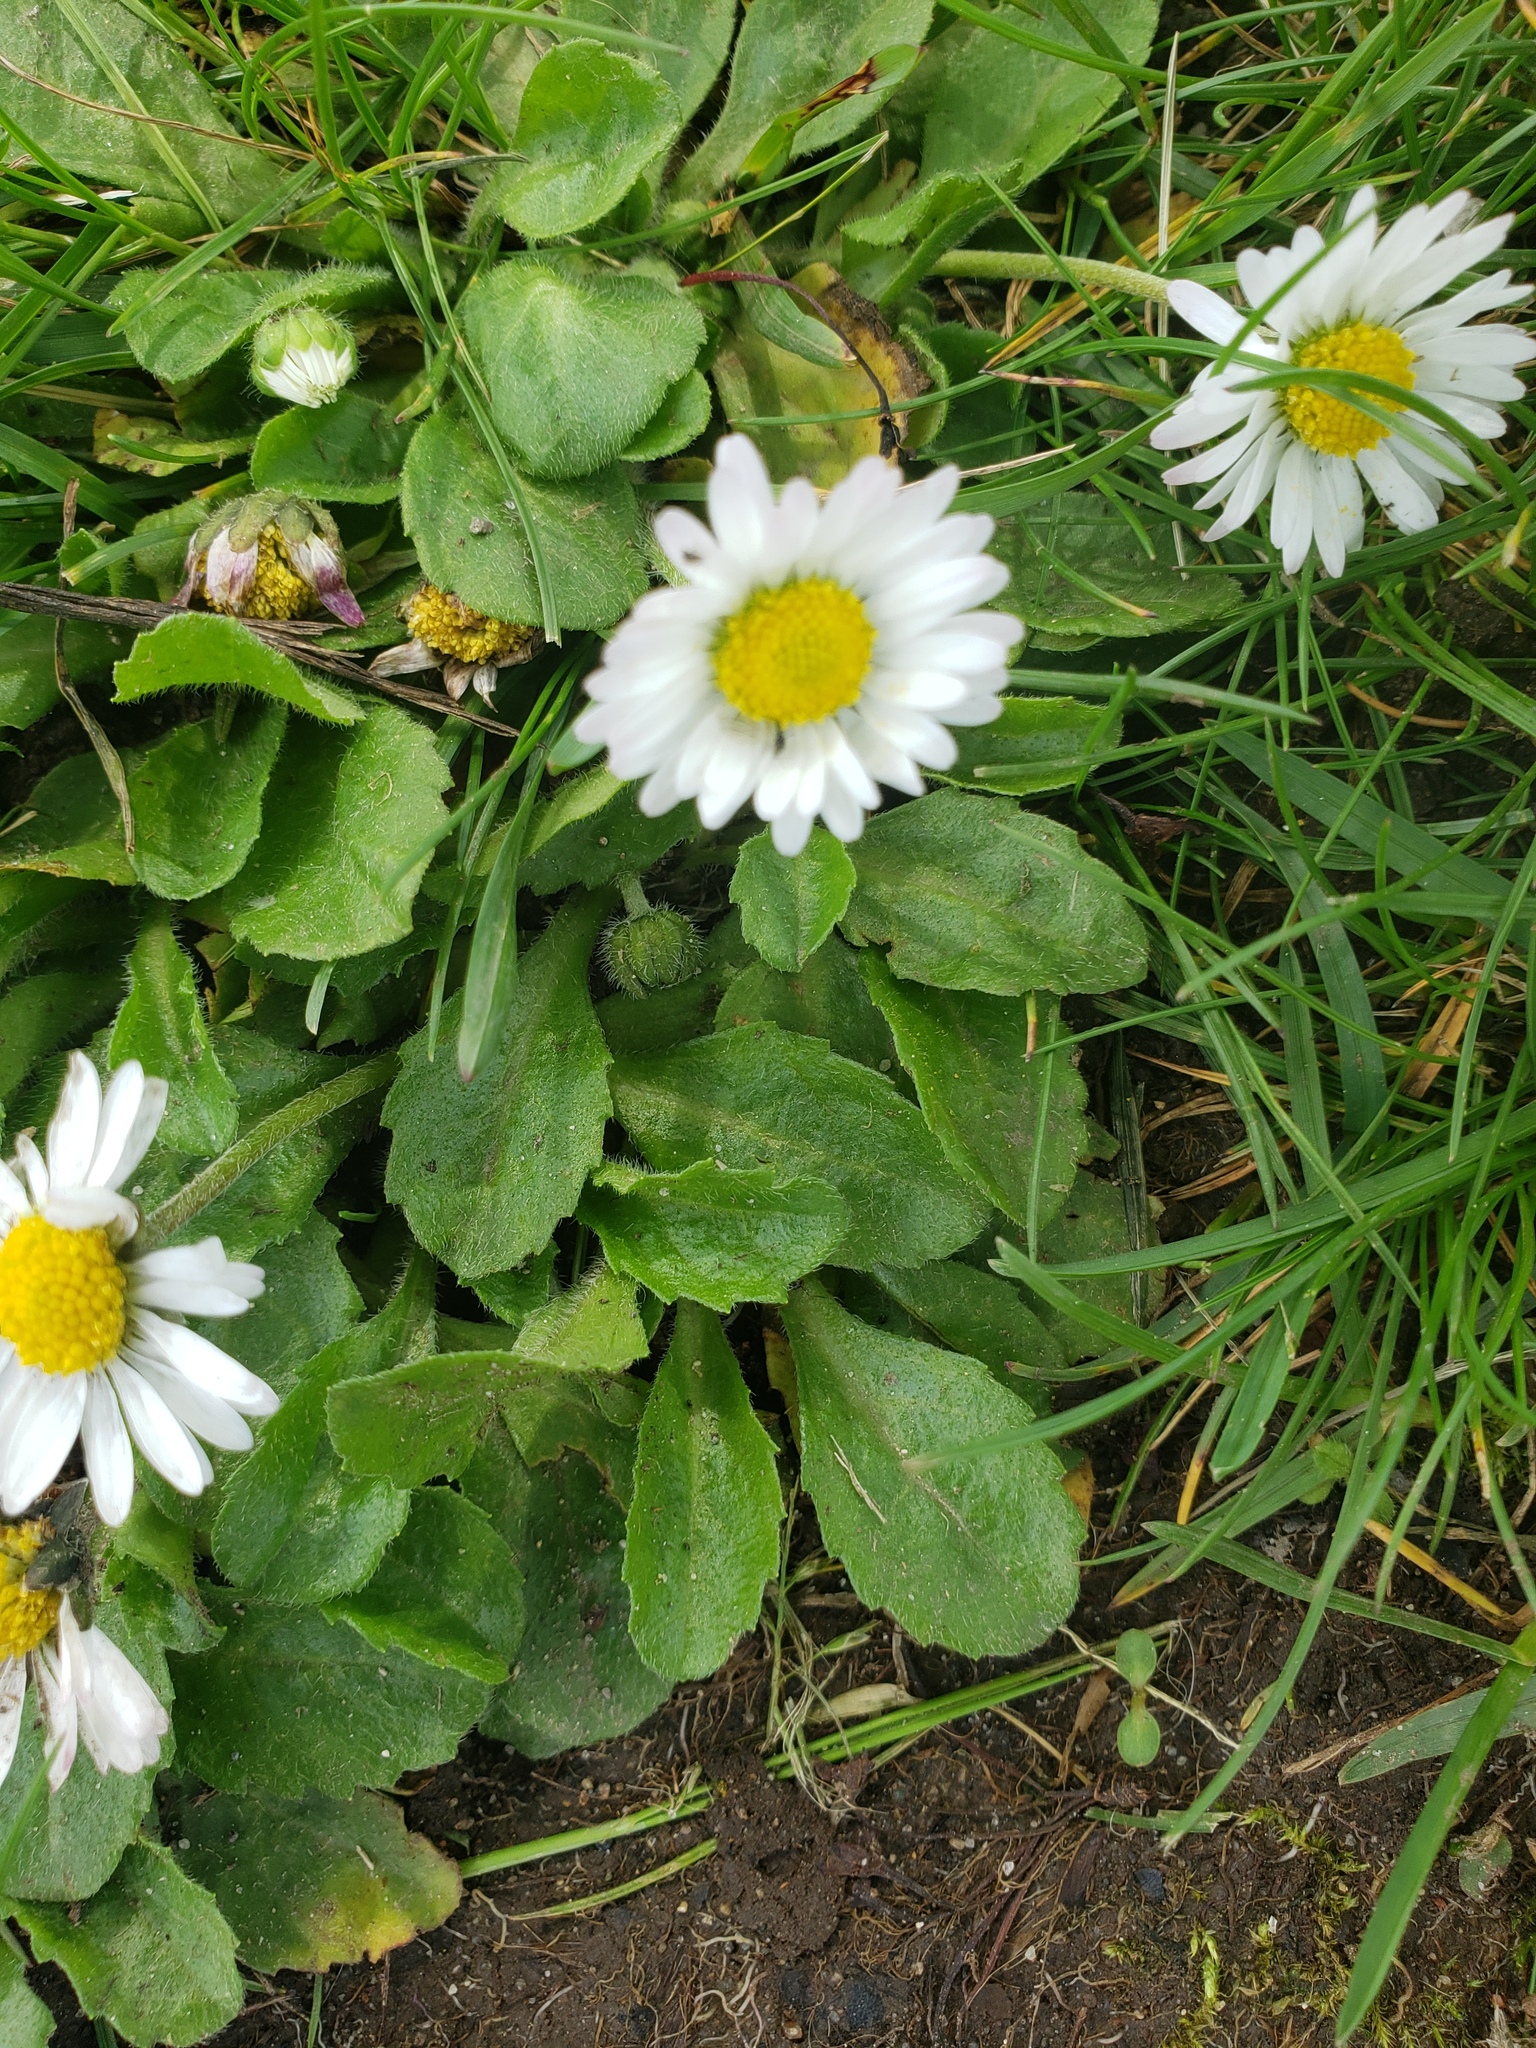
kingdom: Plantae
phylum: Tracheophyta
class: Magnoliopsida
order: Asterales
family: Asteraceae
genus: Bellis
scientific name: Bellis perennis
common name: Lawndaisy
